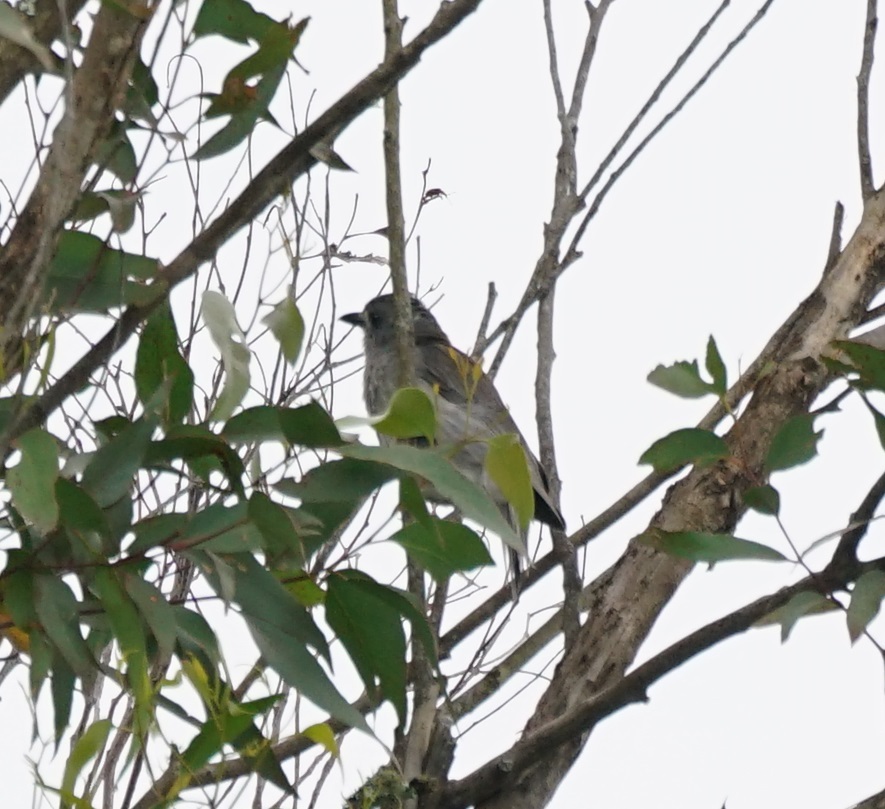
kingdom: Animalia
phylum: Chordata
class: Aves
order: Passeriformes
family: Pachycephalidae
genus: Colluricincla
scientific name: Colluricincla harmonica
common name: Grey shrikethrush
